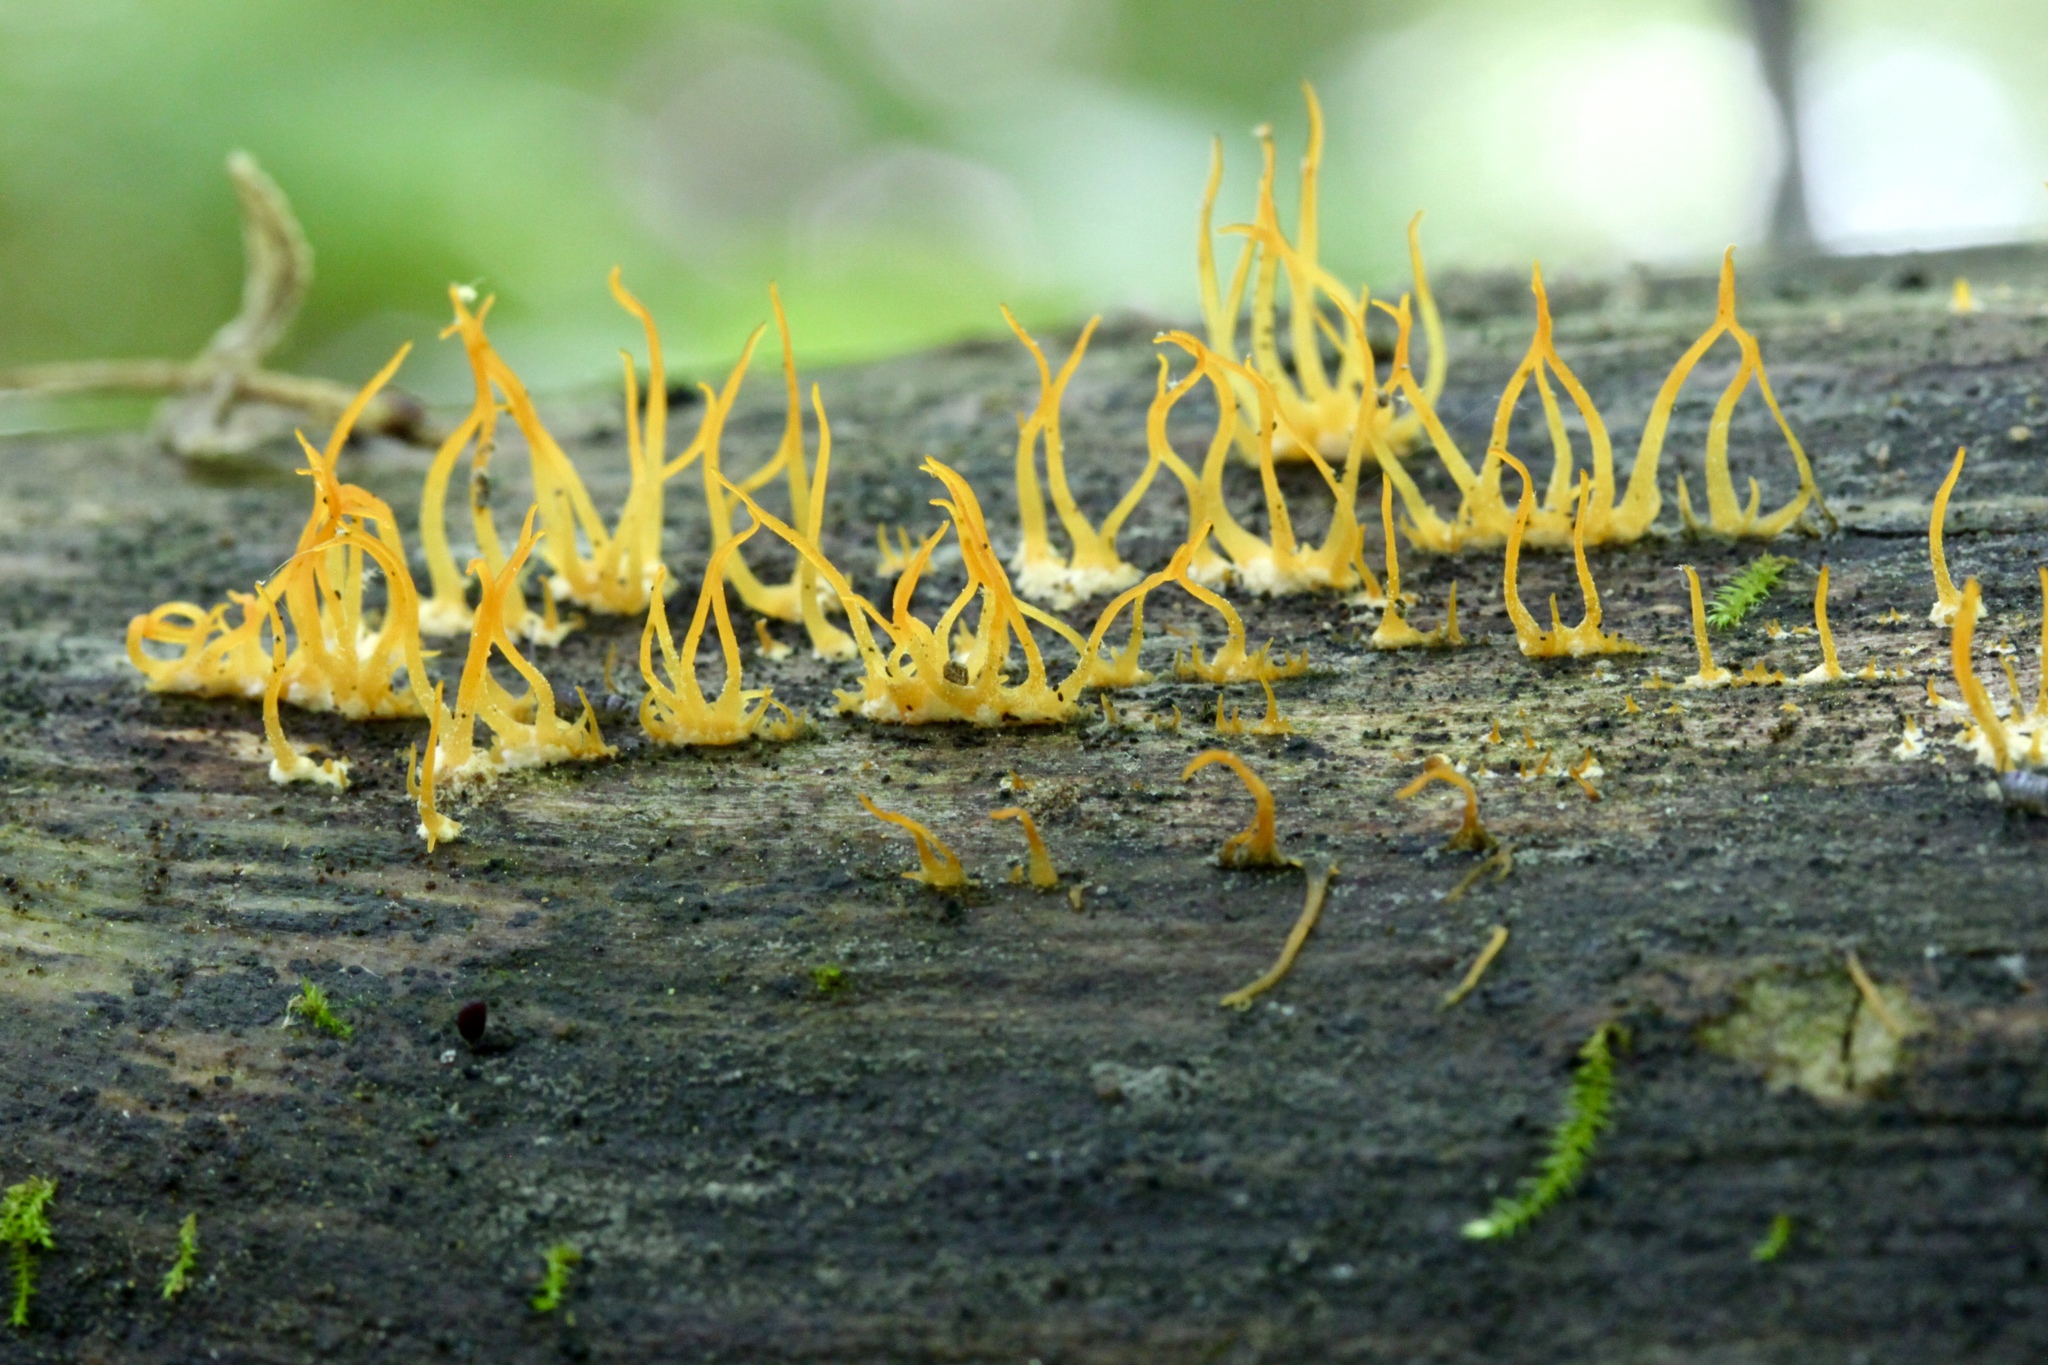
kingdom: Fungi
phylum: Basidiomycota
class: Dacrymycetes
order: Dacrymycetales
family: Dacrymycetaceae
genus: Calocera
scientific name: Calocera cornea
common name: Small stagshorn
